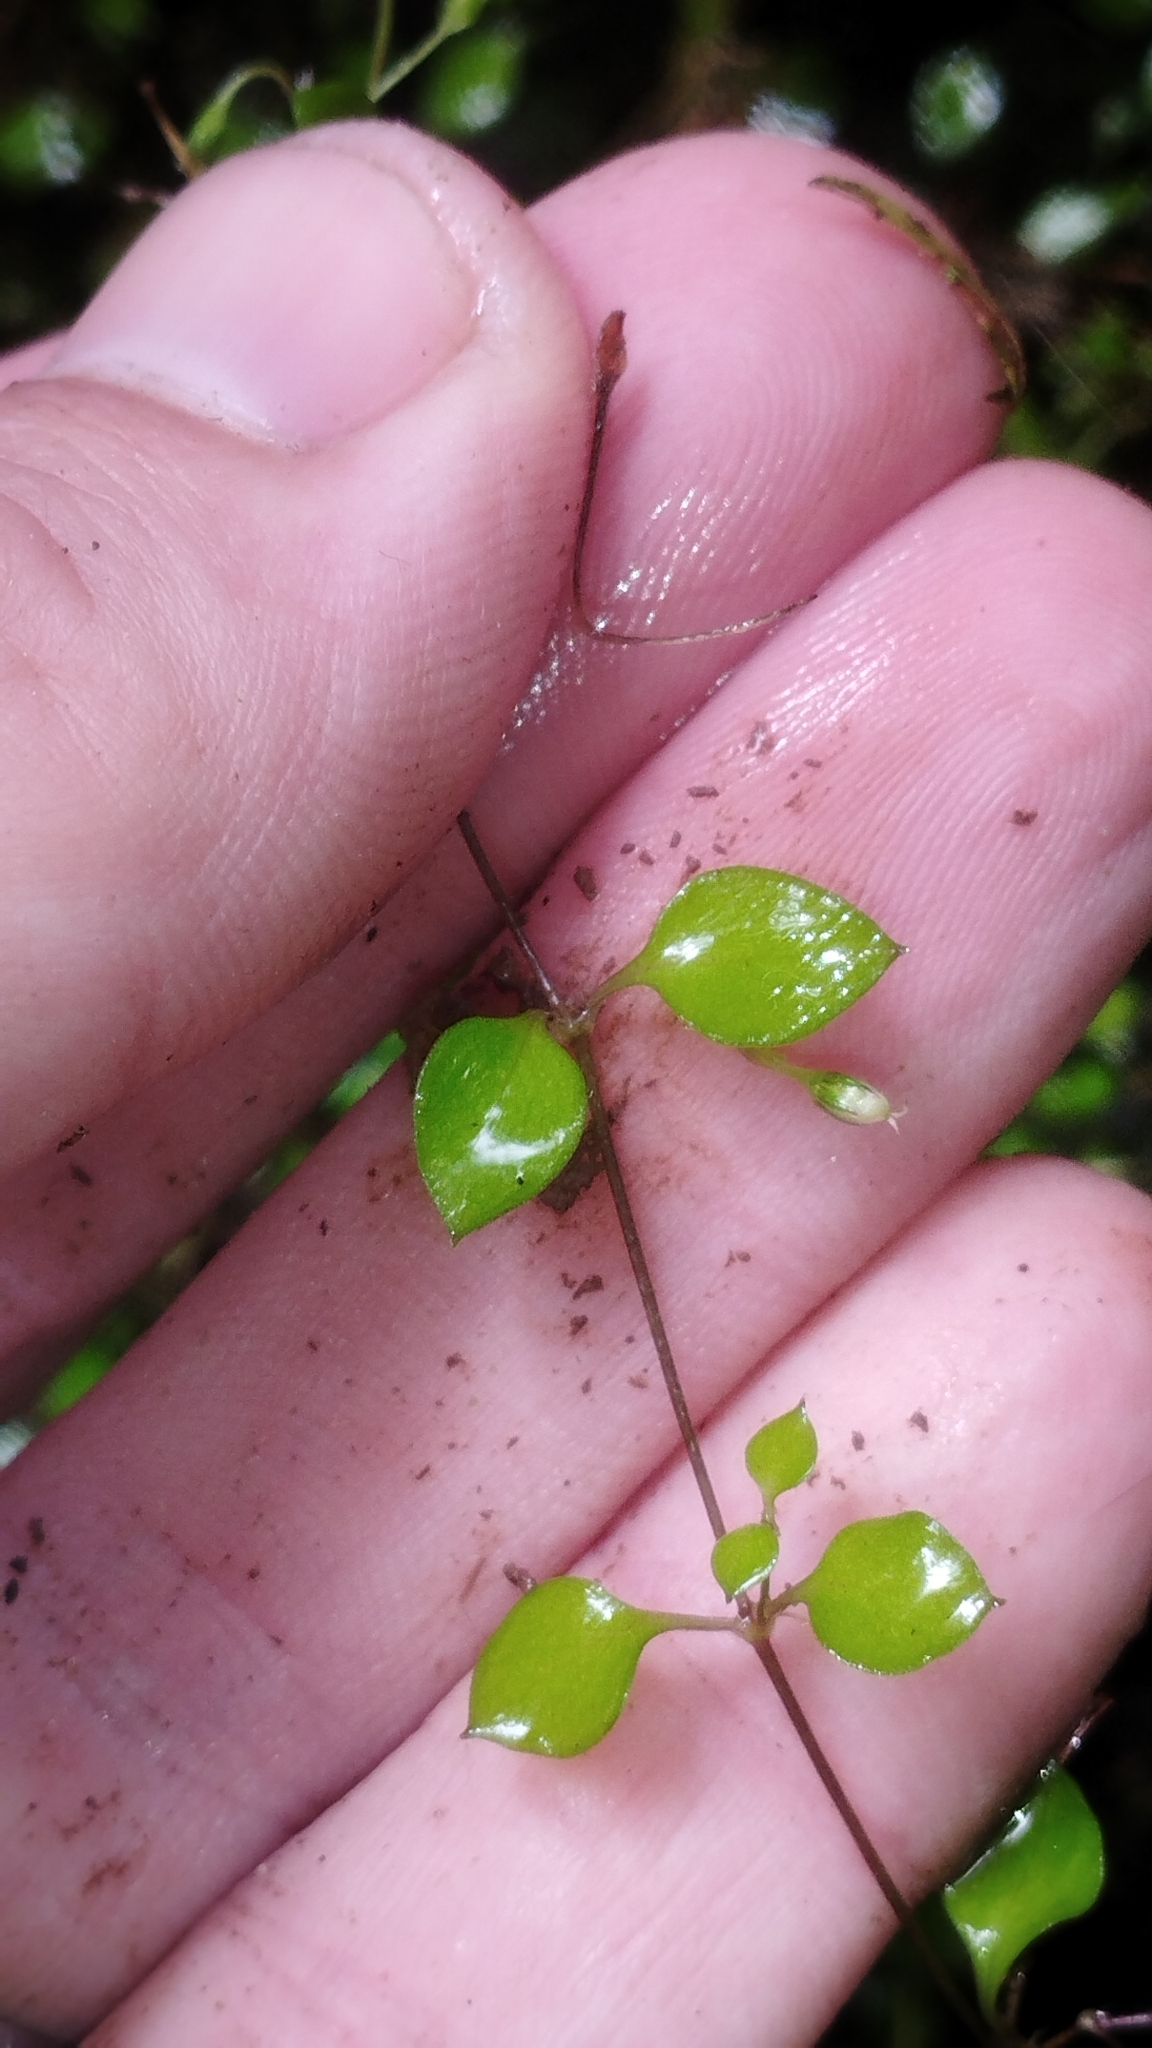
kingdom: Plantae
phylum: Tracheophyta
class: Magnoliopsida
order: Caryophyllales
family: Caryophyllaceae
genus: Stellaria
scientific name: Stellaria parviflora
